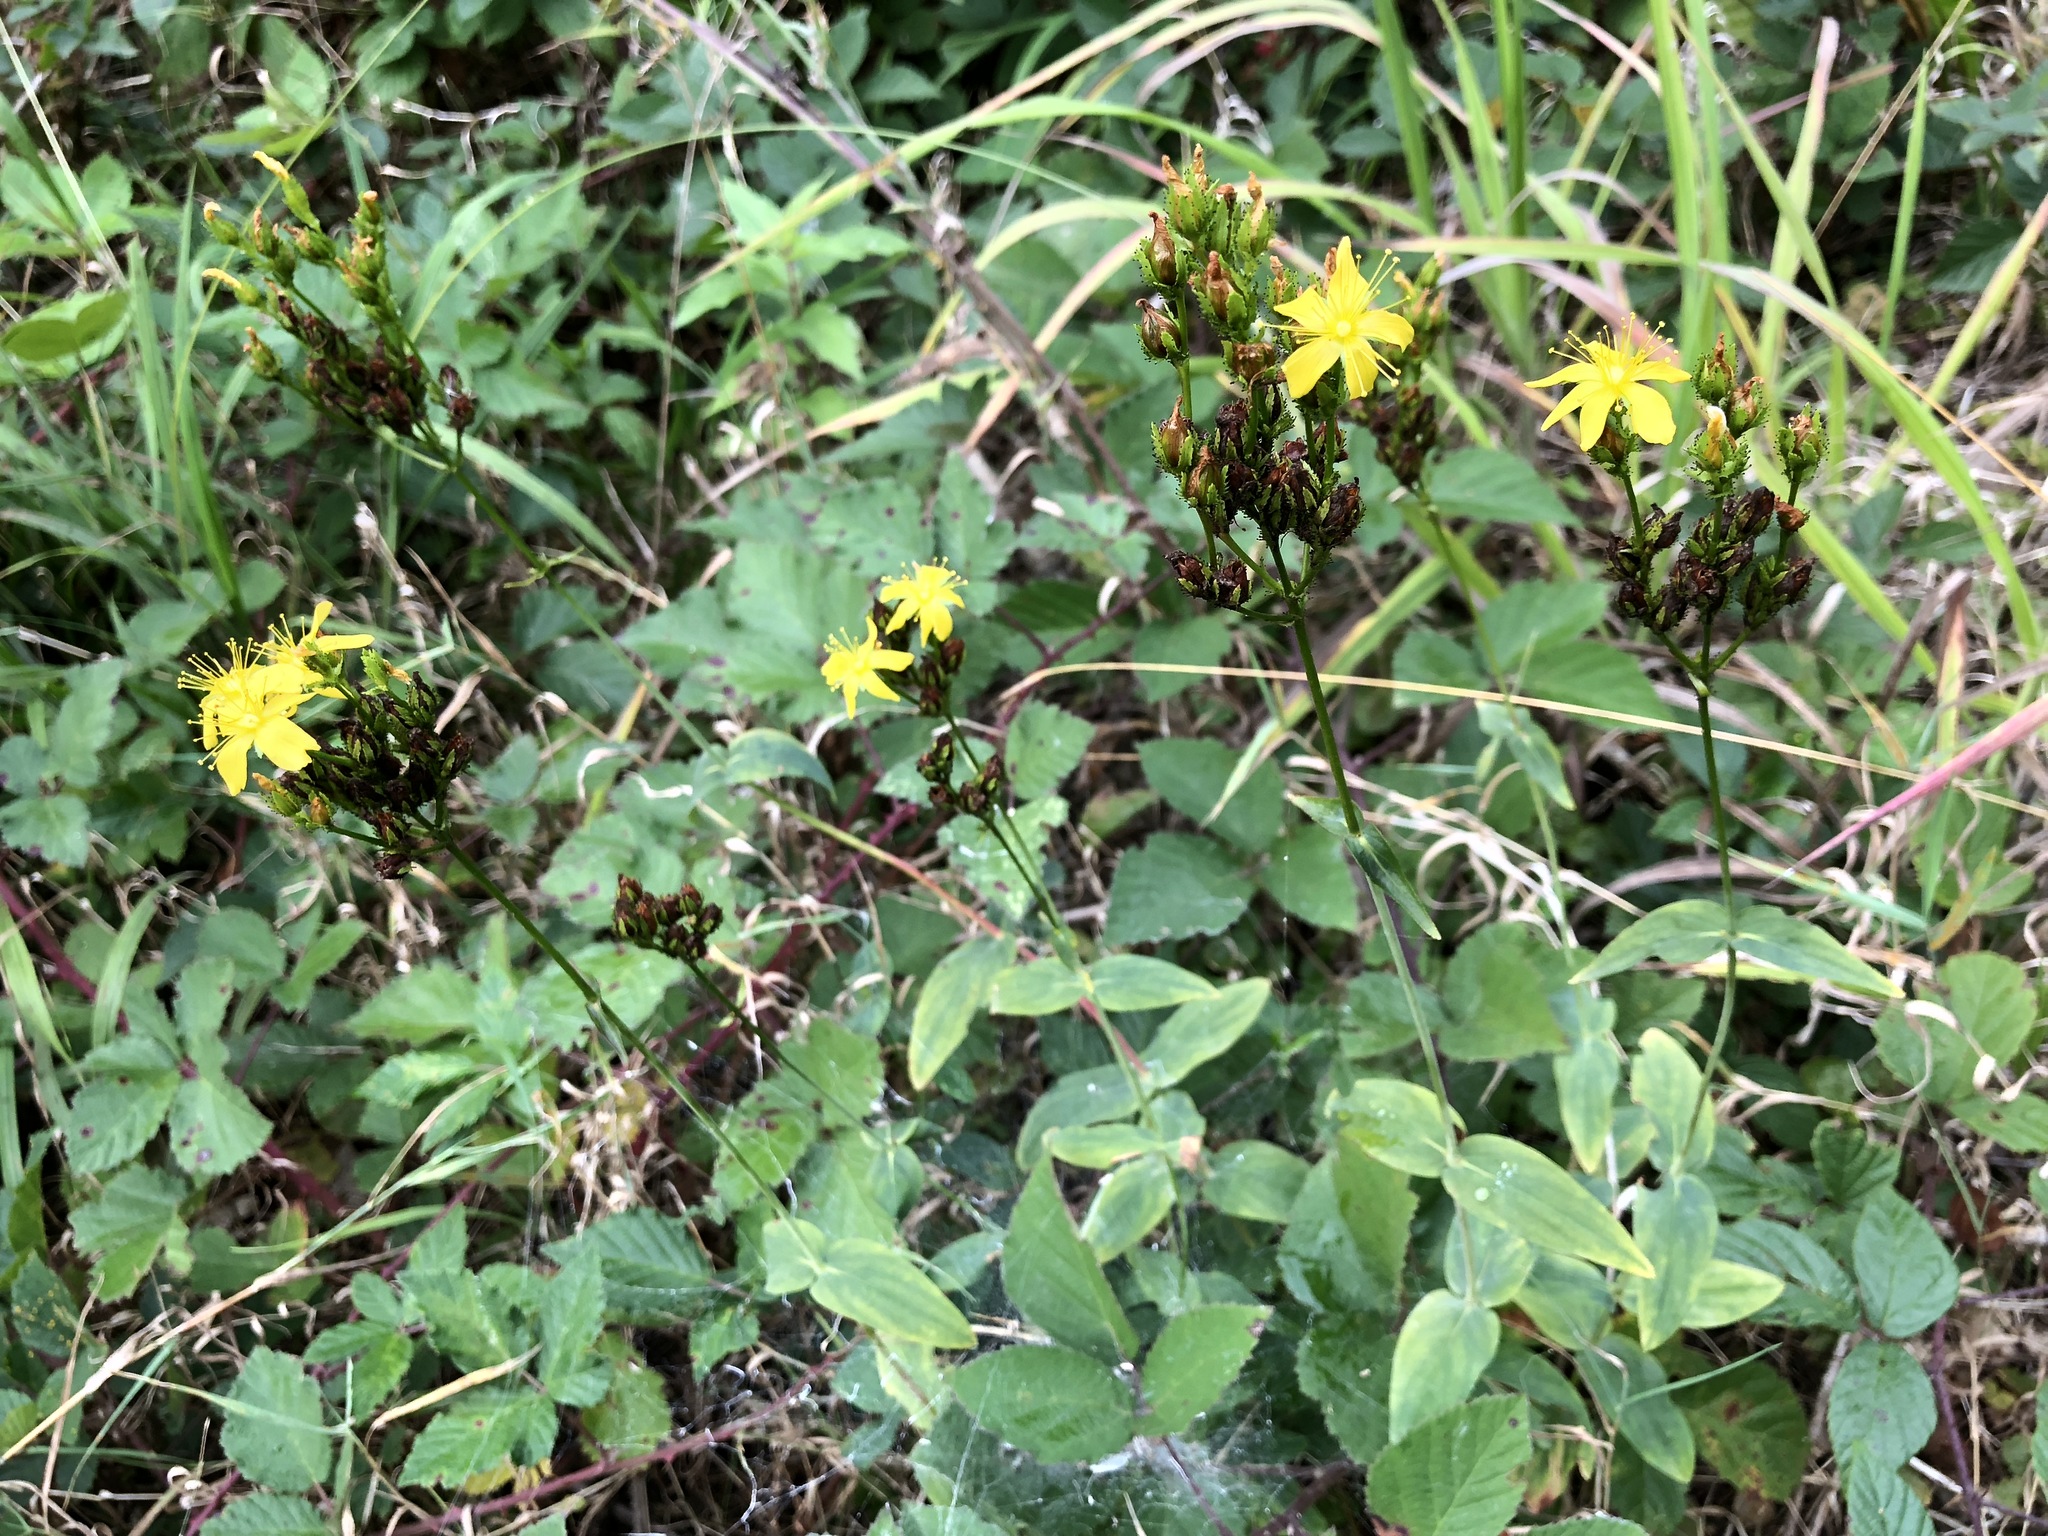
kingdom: Plantae
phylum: Tracheophyta
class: Magnoliopsida
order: Malpighiales
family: Hypericaceae
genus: Hypericum
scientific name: Hypericum montanum
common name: Pale st. john's-wort
